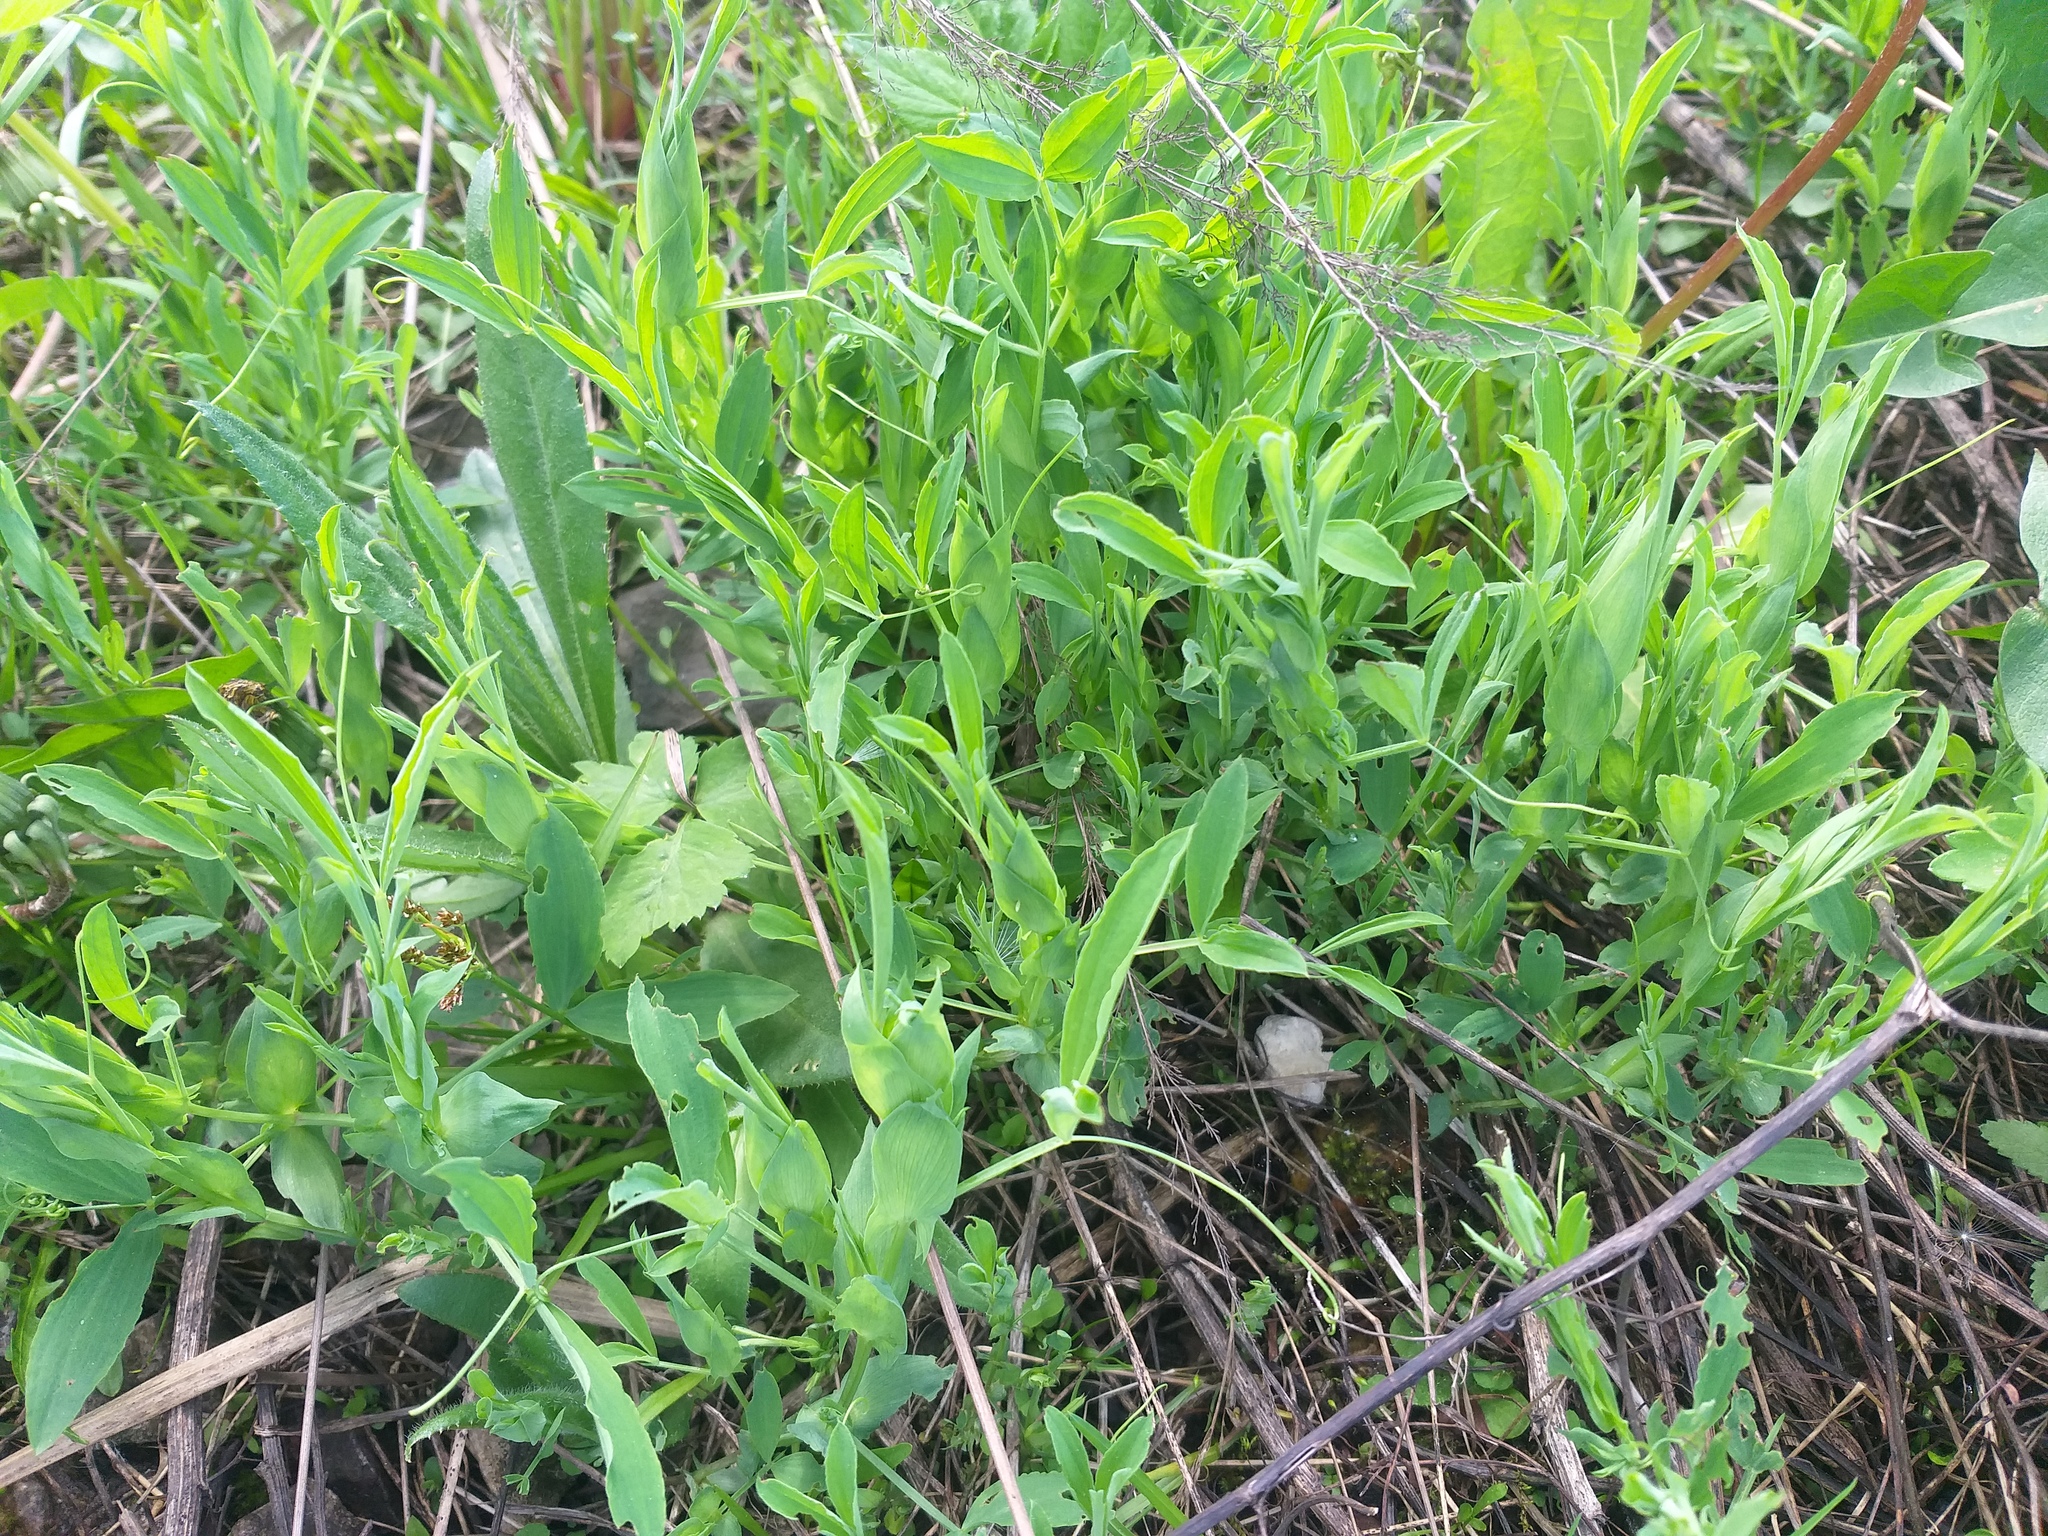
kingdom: Plantae
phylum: Tracheophyta
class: Magnoliopsida
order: Fabales
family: Fabaceae
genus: Lathyrus
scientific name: Lathyrus pratensis
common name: Meadow vetchling
